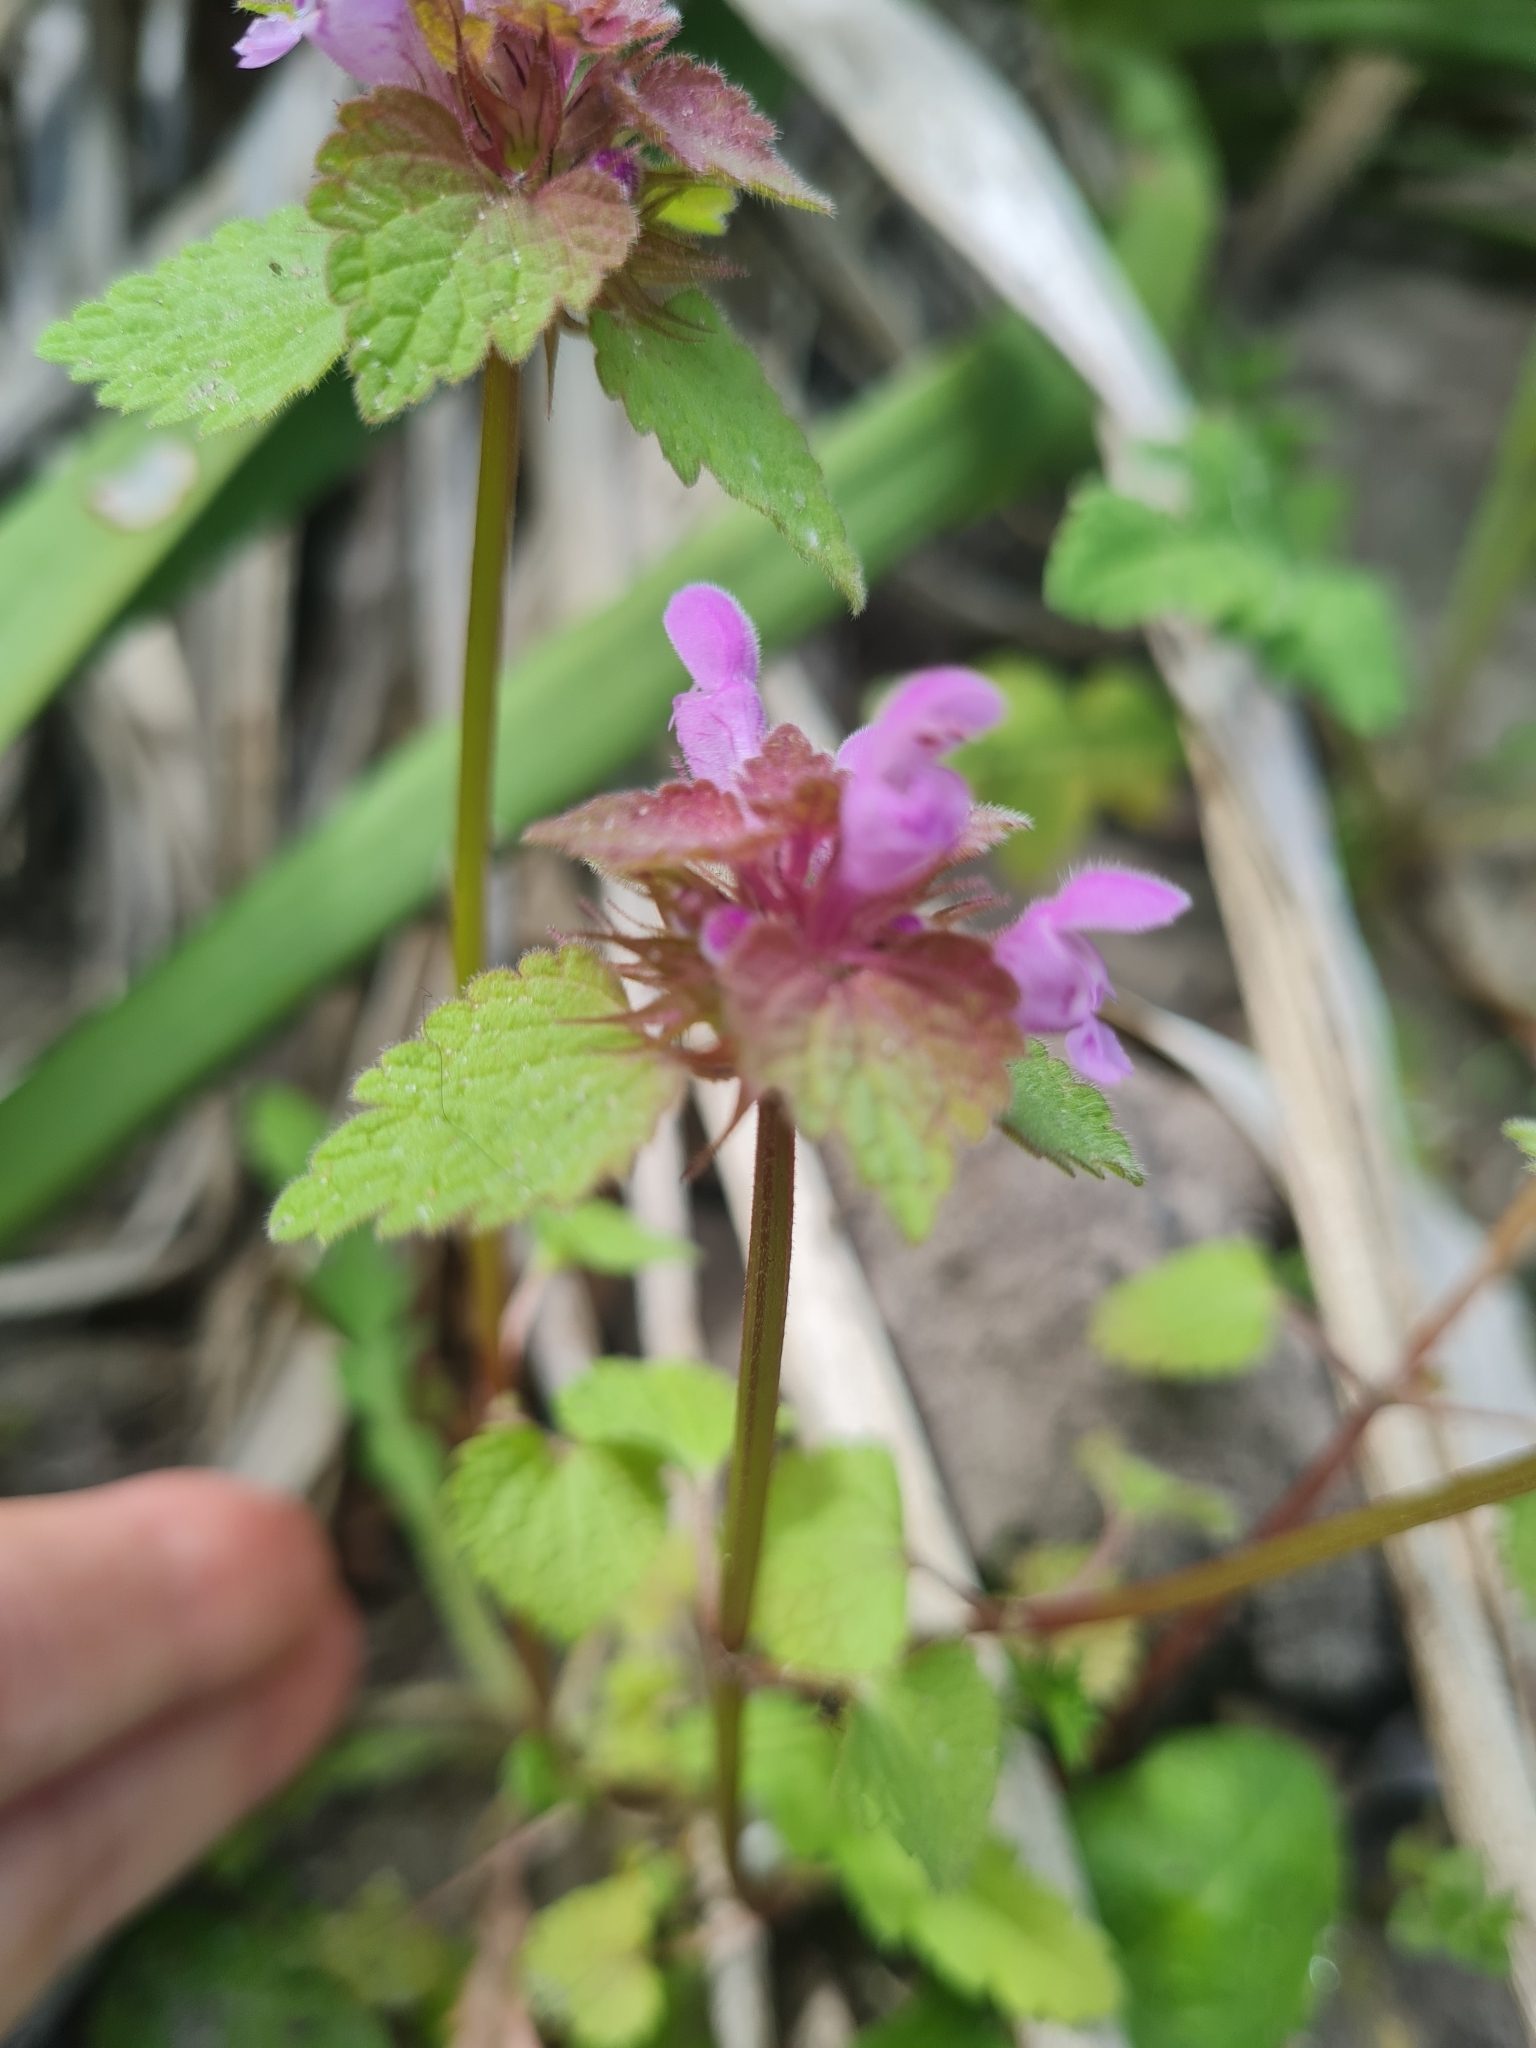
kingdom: Plantae
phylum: Tracheophyta
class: Magnoliopsida
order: Lamiales
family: Lamiaceae
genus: Lamium
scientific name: Lamium purpureum
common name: Red dead-nettle
